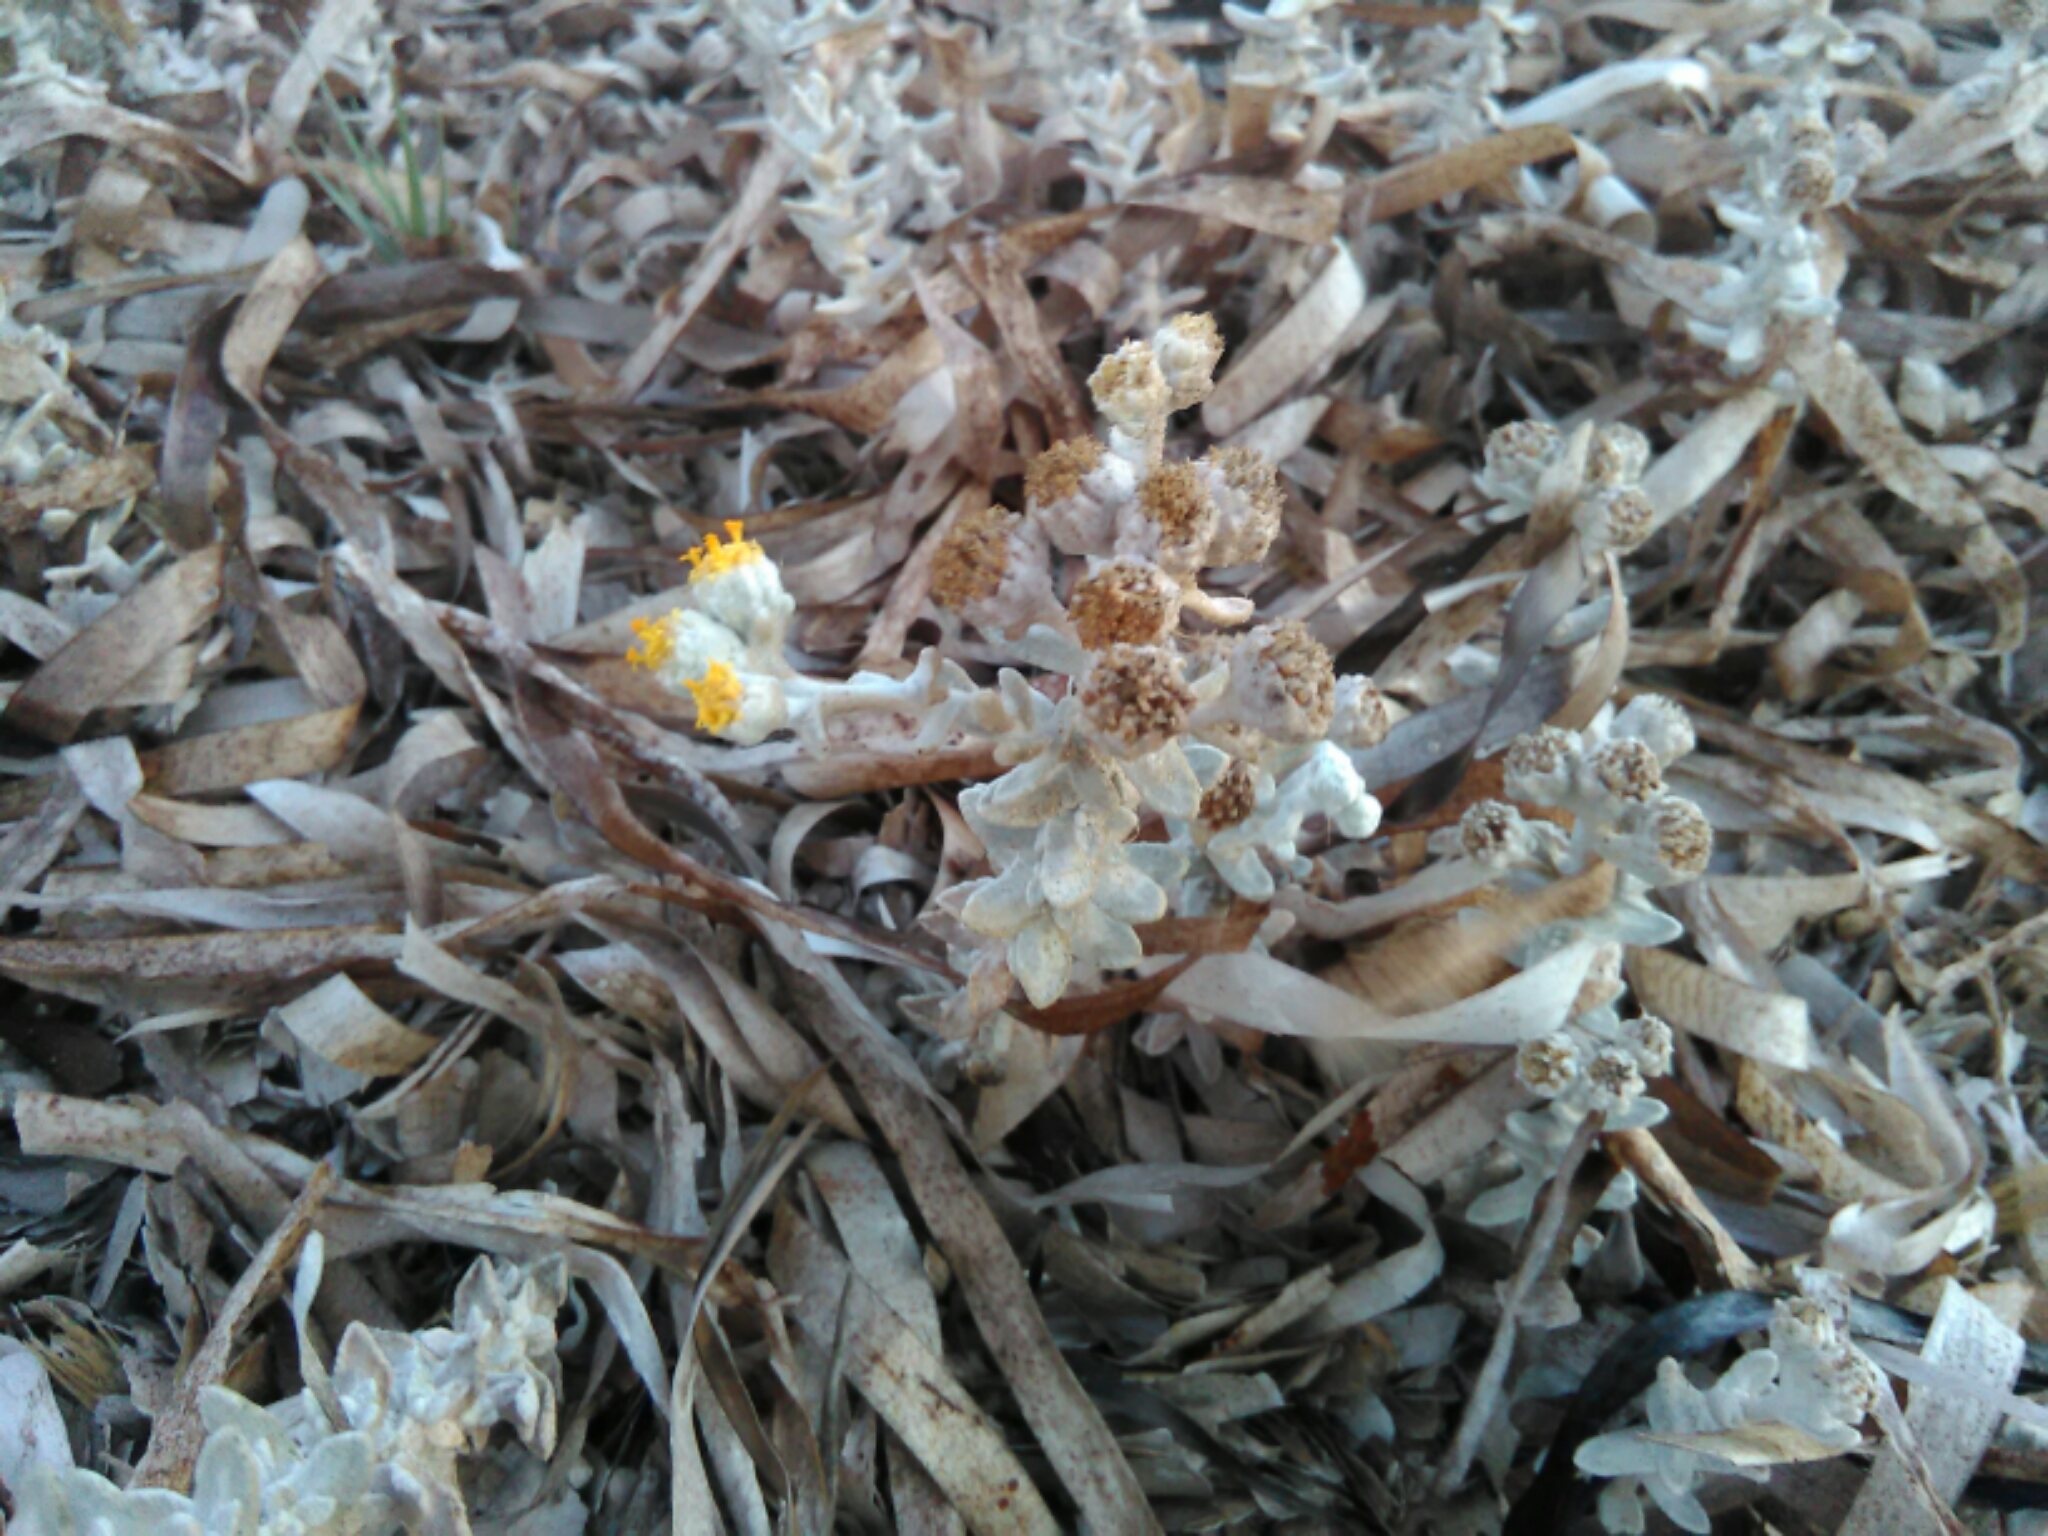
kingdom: Plantae
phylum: Tracheophyta
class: Magnoliopsida
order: Asterales
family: Asteraceae
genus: Achillea
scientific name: Achillea maritima
